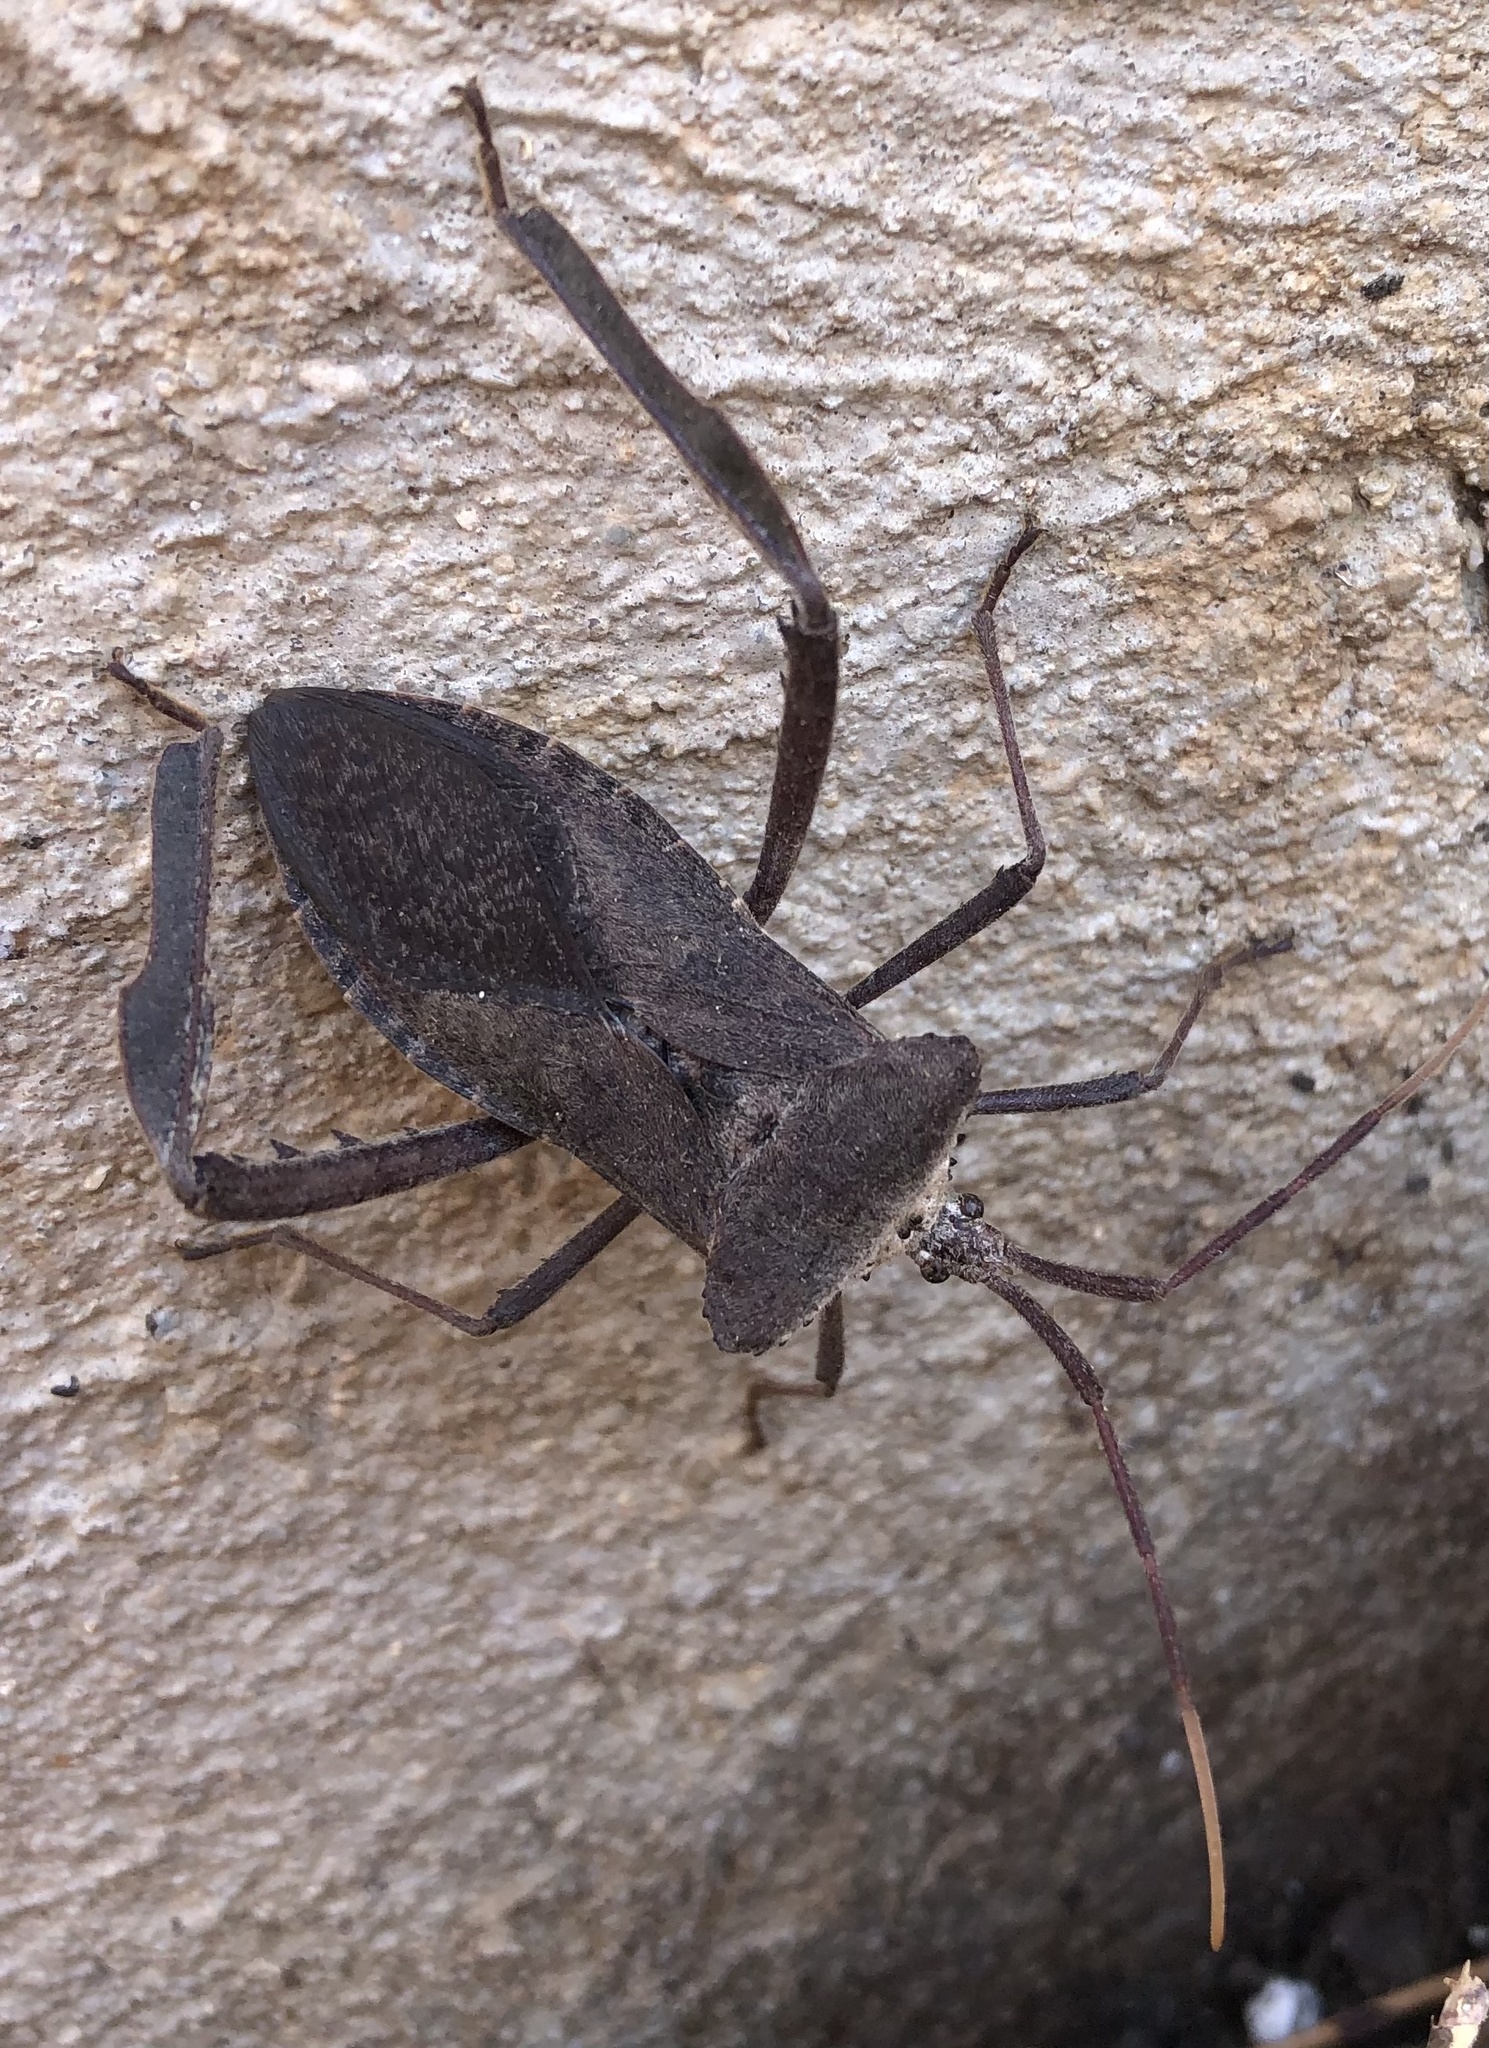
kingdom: Animalia
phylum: Arthropoda
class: Insecta
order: Hemiptera
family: Coreidae
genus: Acanthocephala
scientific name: Acanthocephala declivis
